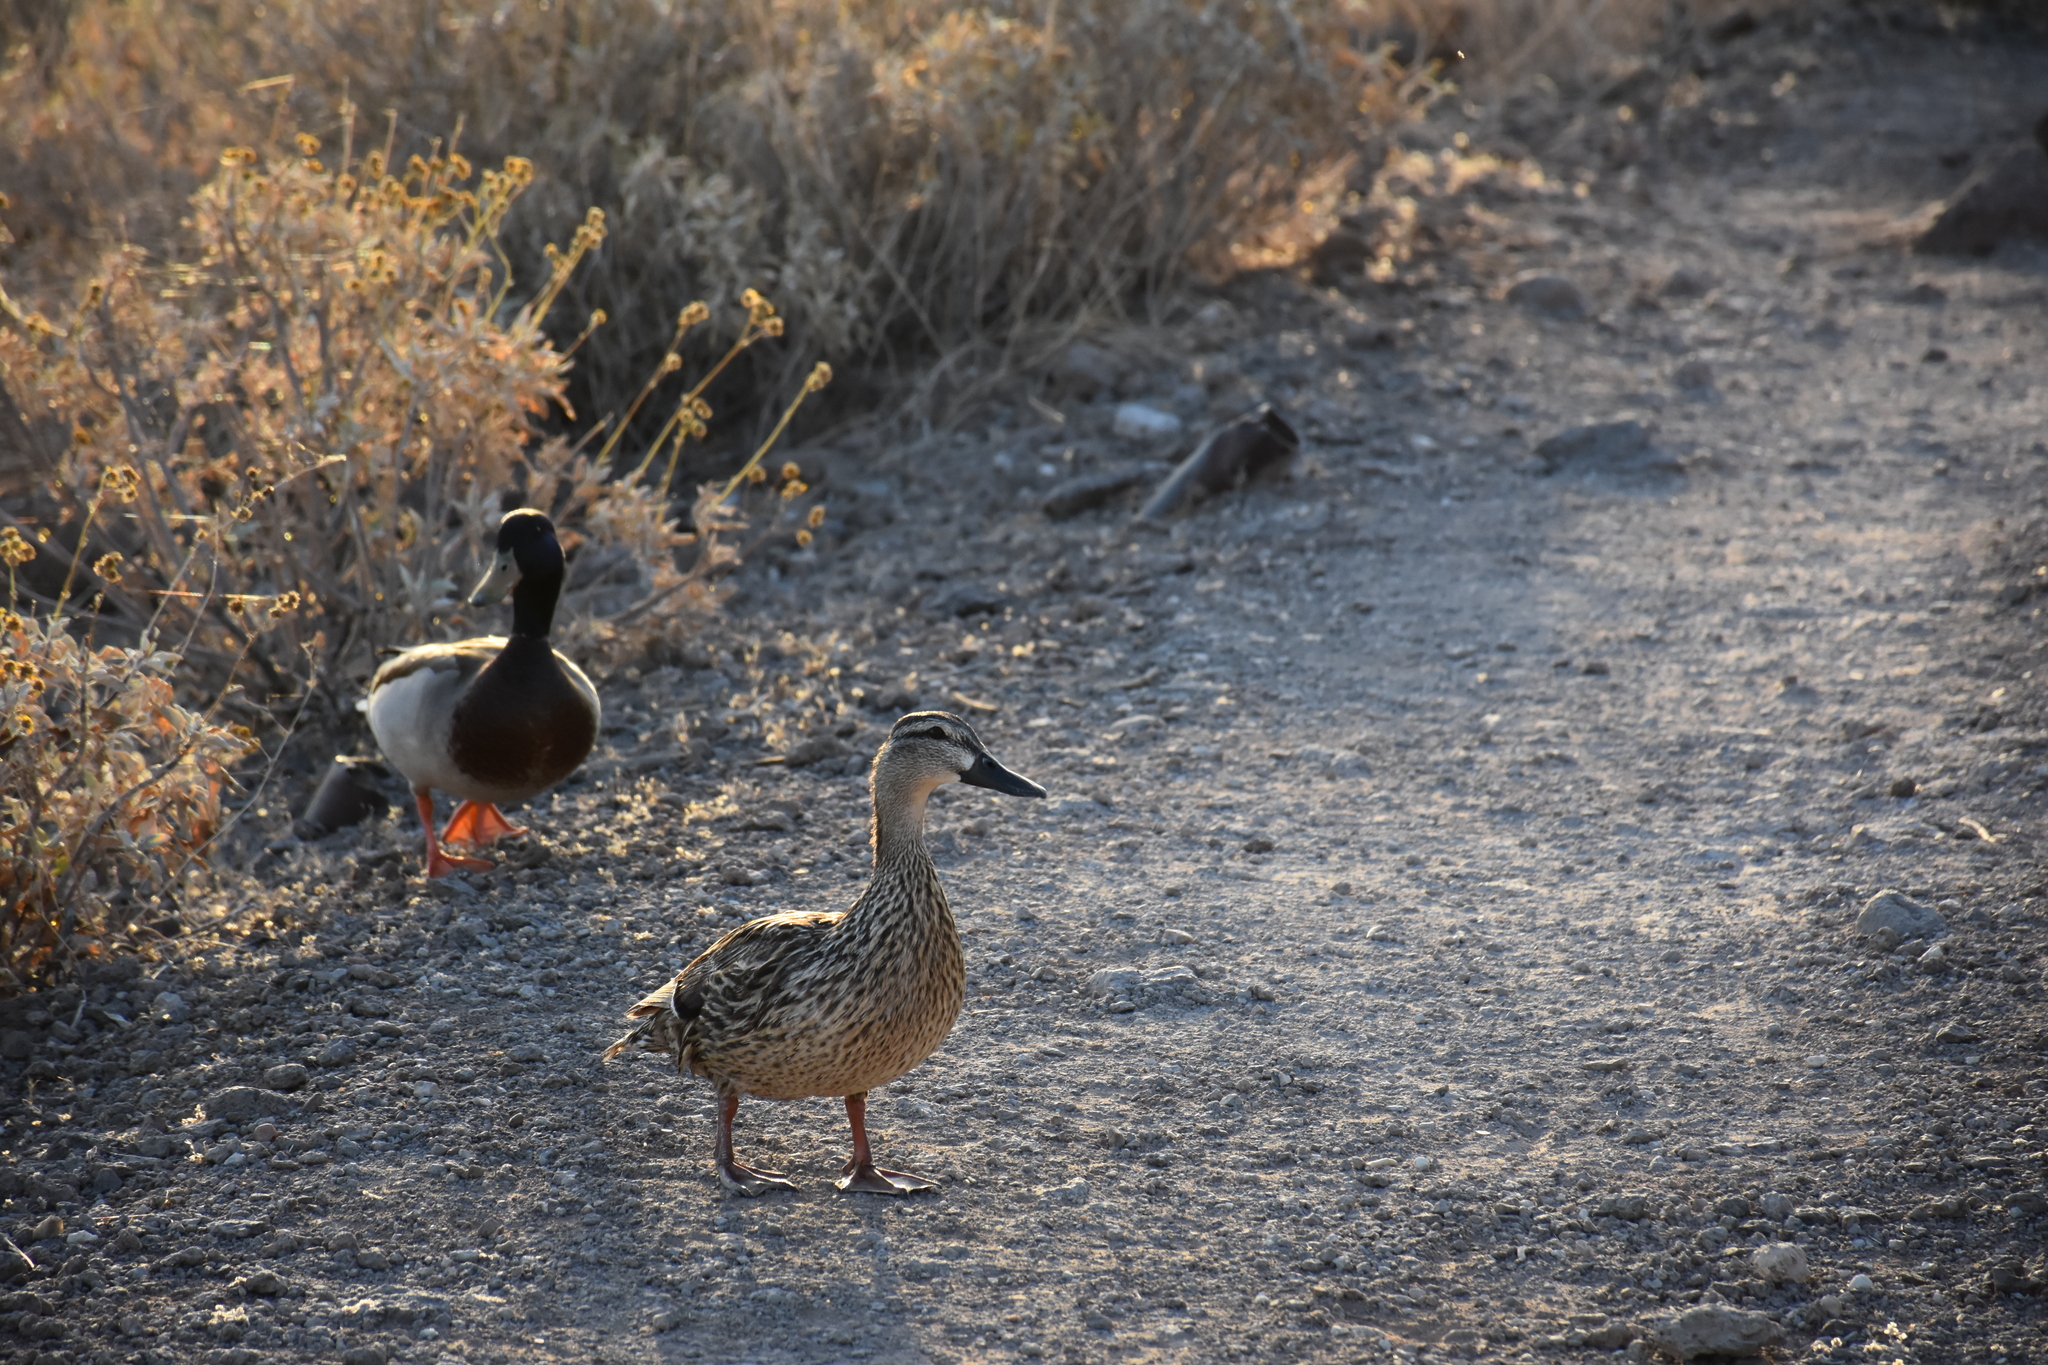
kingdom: Animalia
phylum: Chordata
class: Aves
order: Anseriformes
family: Anatidae
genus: Anas
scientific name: Anas platyrhynchos
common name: Mallard
